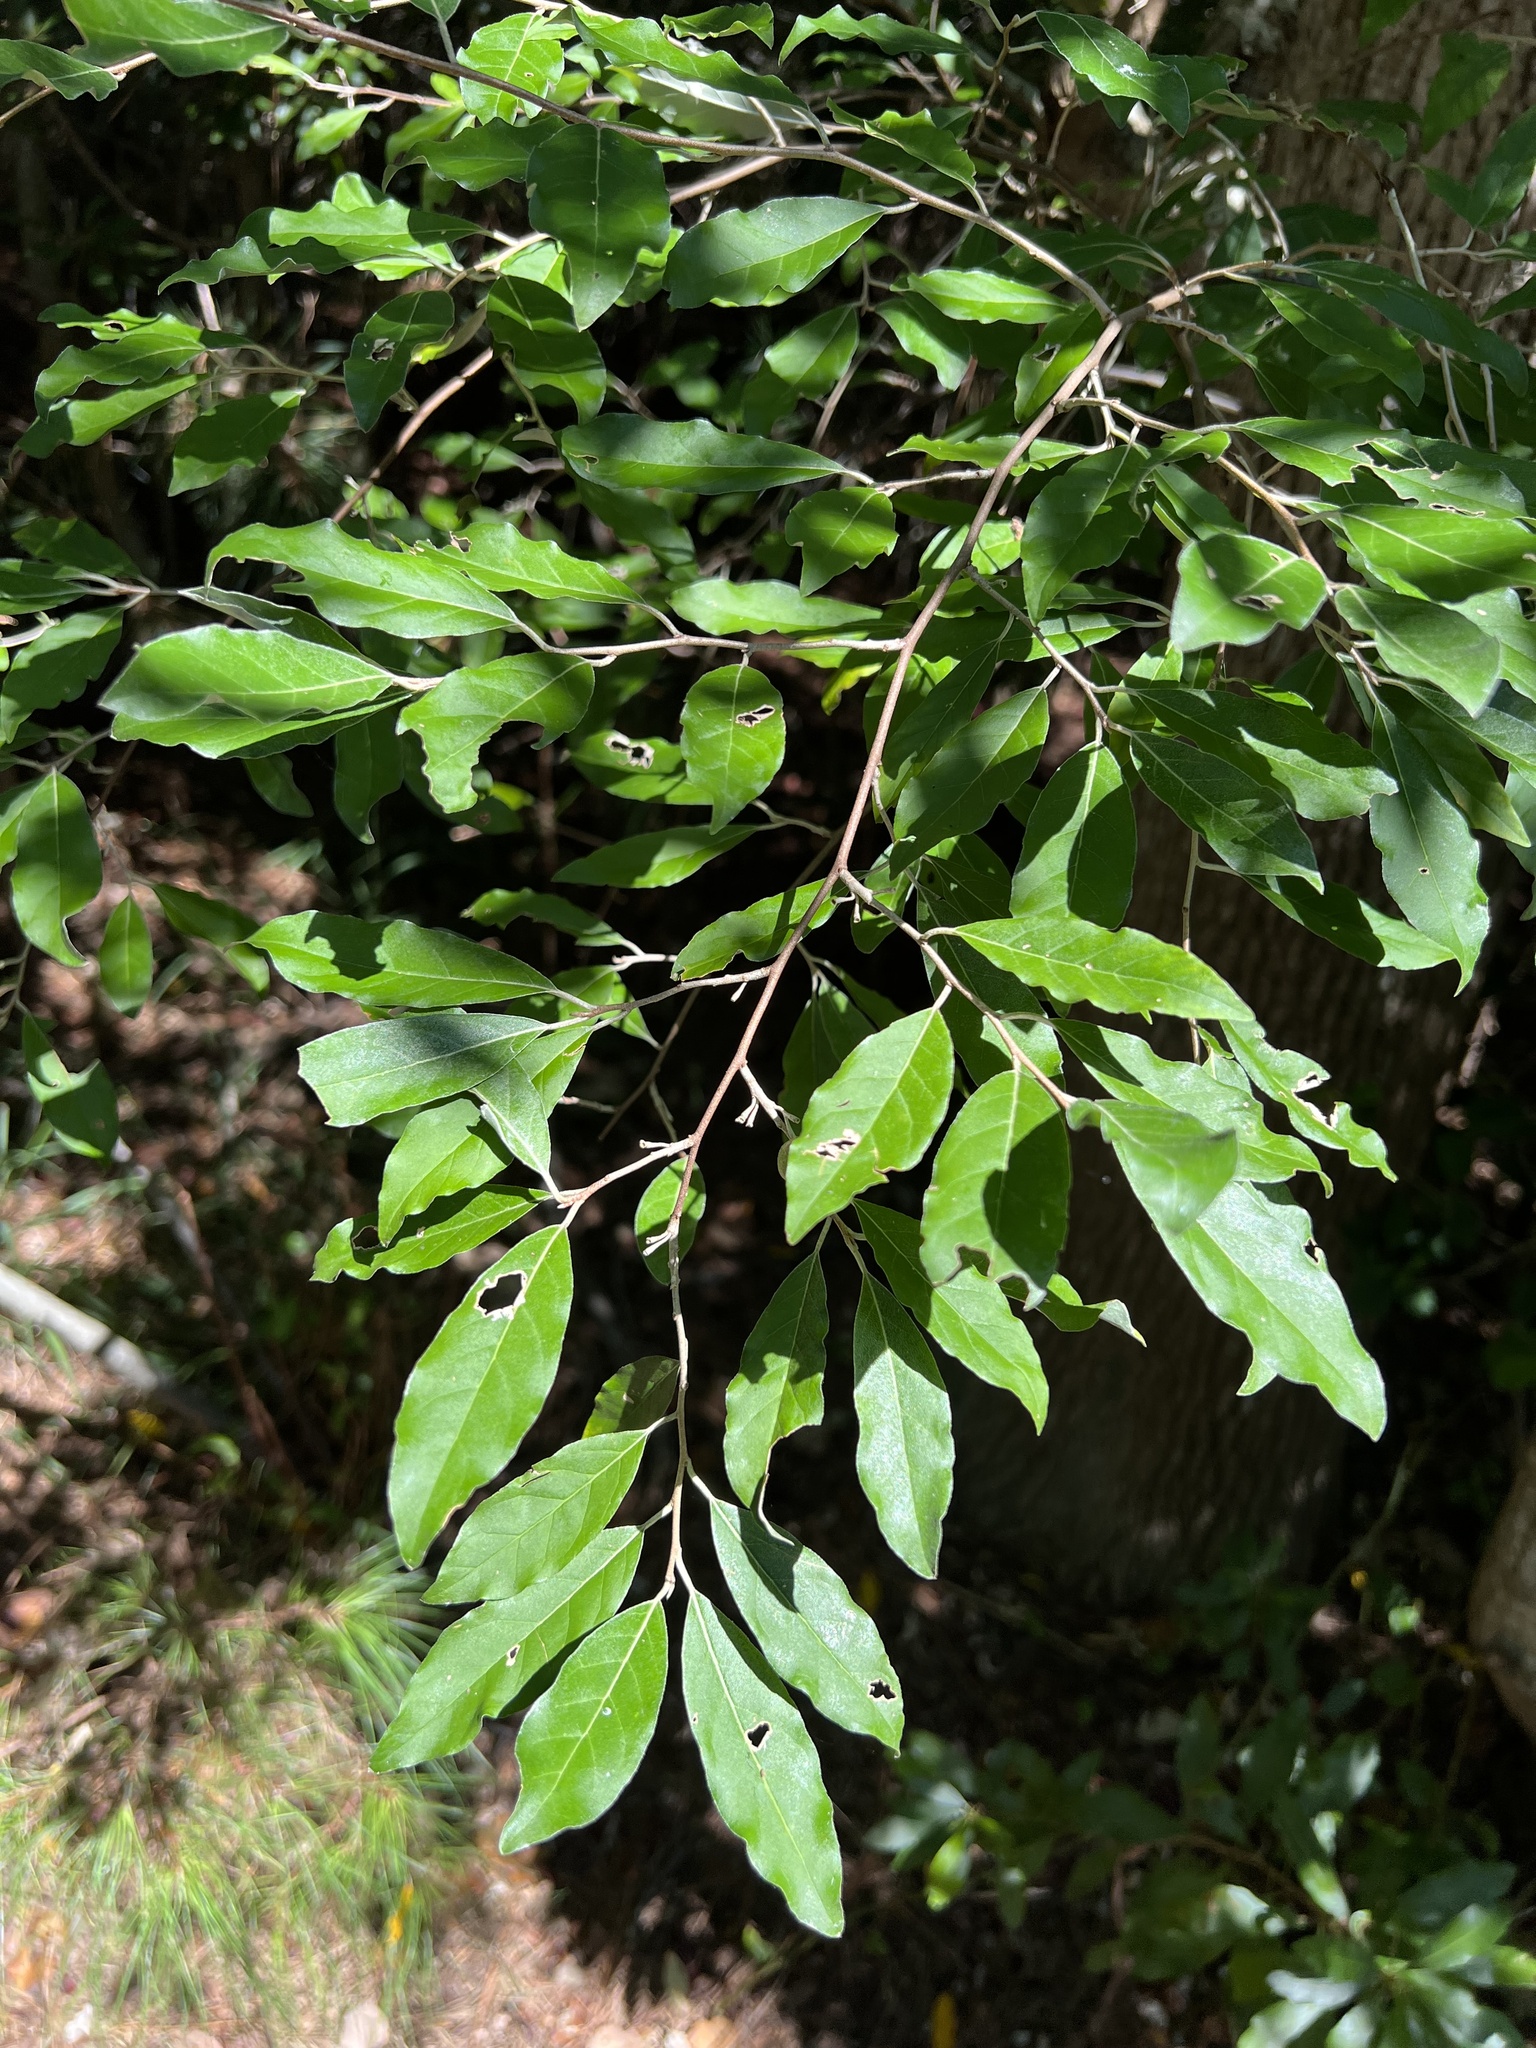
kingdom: Plantae
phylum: Tracheophyta
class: Magnoliopsida
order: Rosales
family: Elaeagnaceae
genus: Elaeagnus
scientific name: Elaeagnus umbellata
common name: Autumn olive
